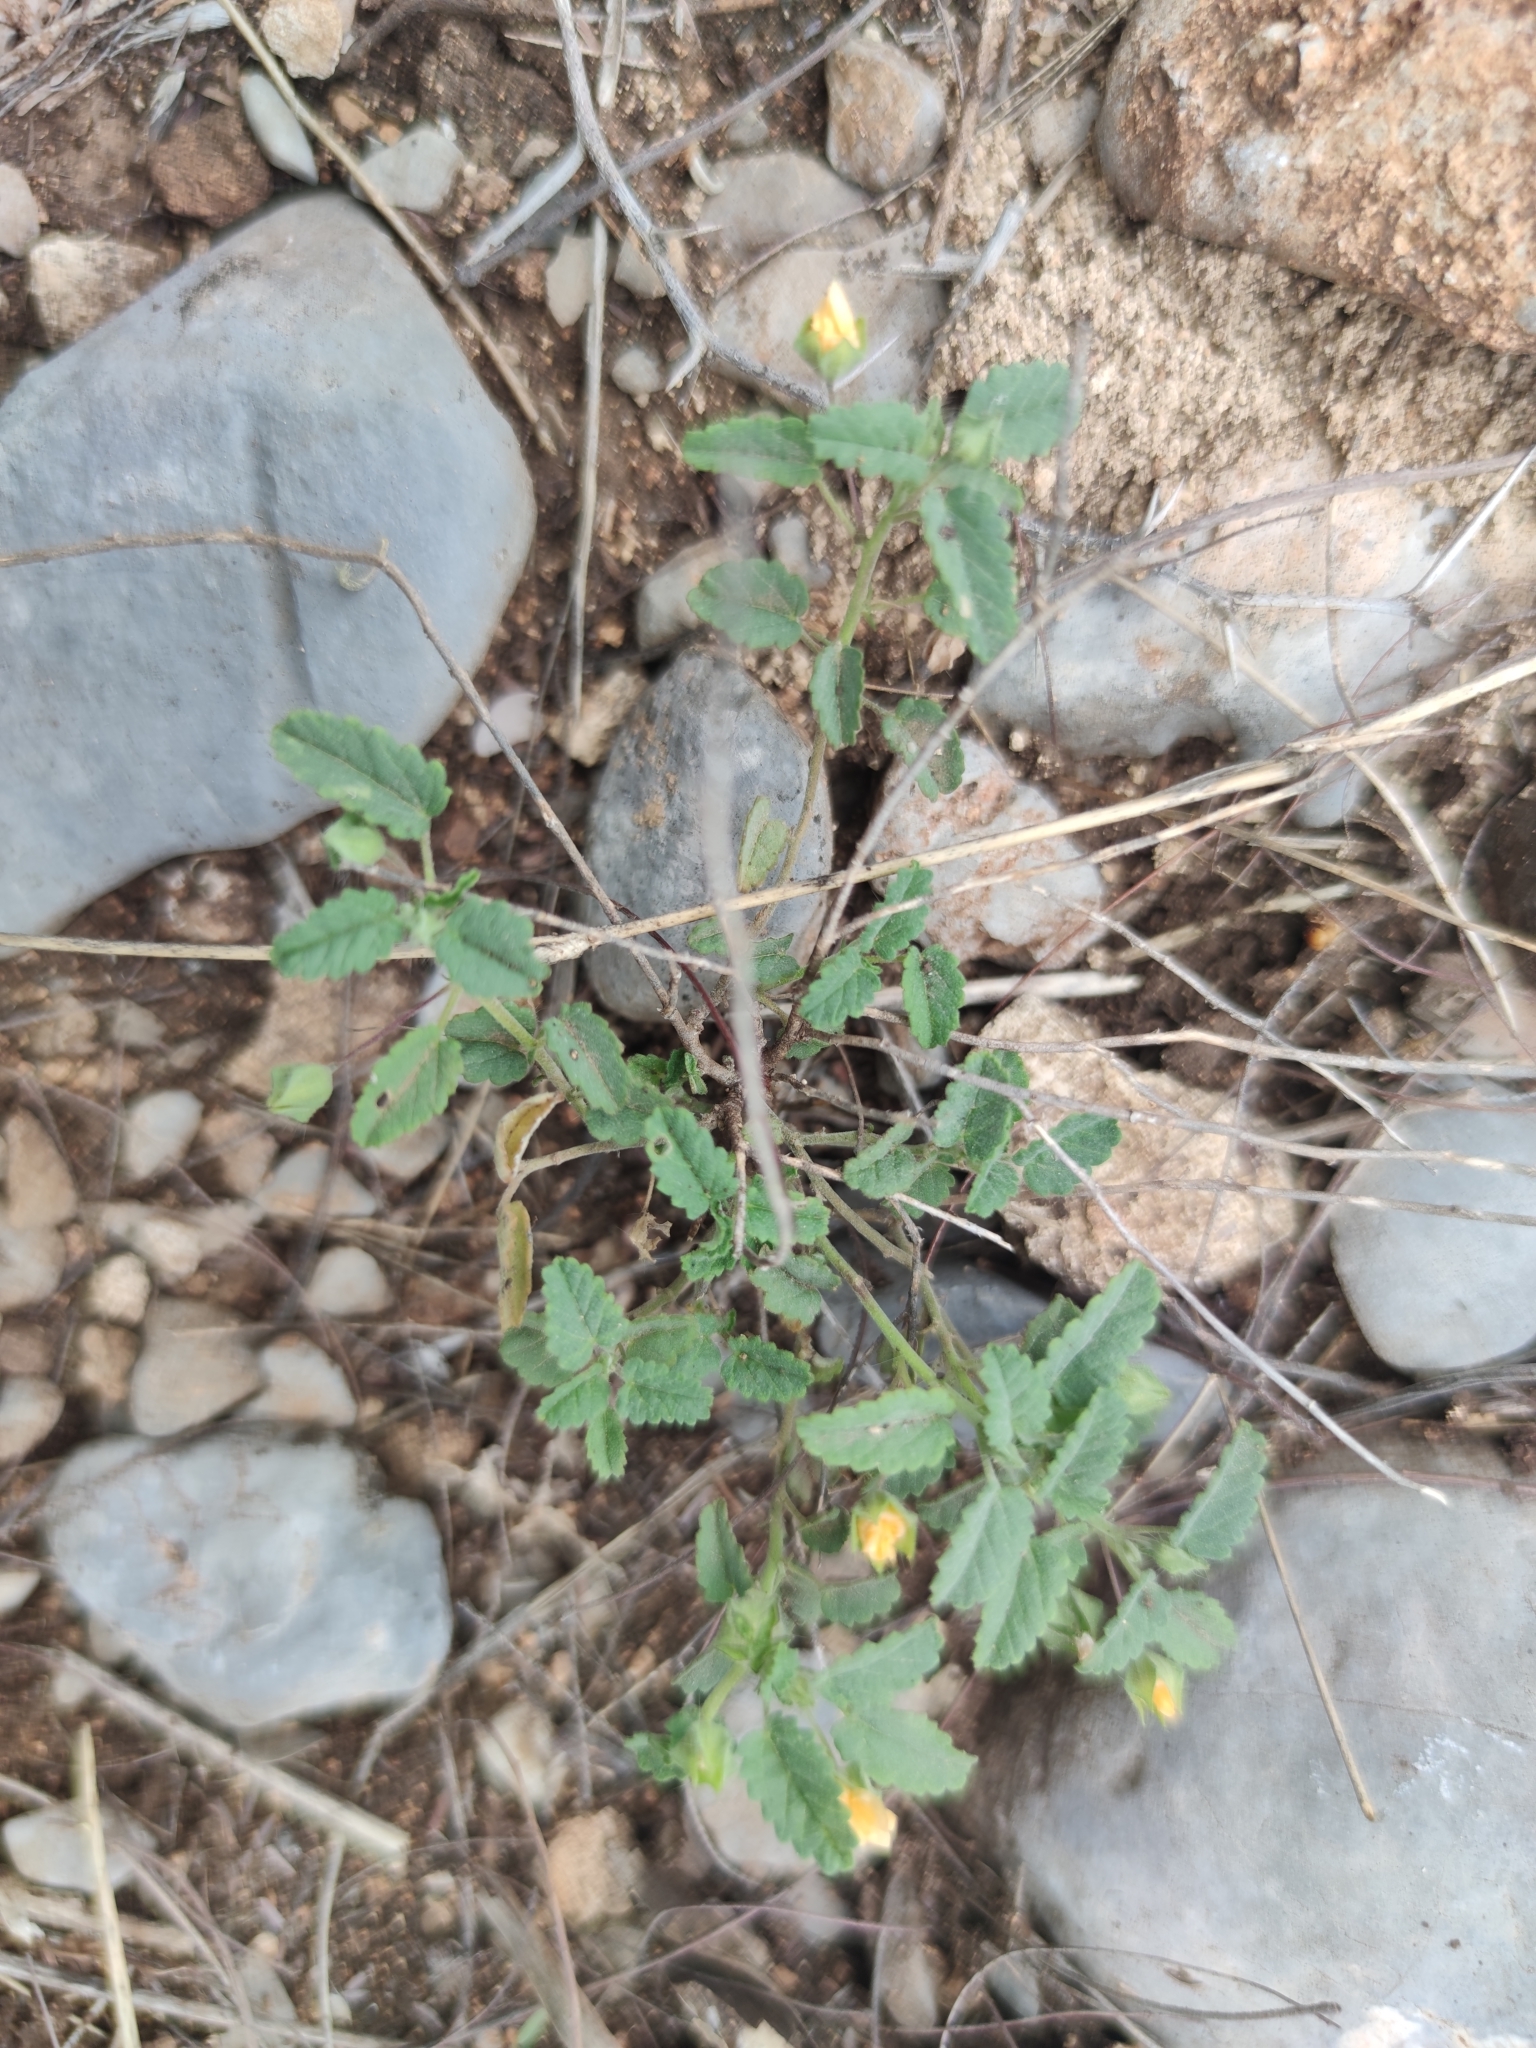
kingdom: Plantae
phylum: Tracheophyta
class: Magnoliopsida
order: Malvales
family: Malvaceae
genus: Sida
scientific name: Sida abutilifolia
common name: Spreading fanpetals
